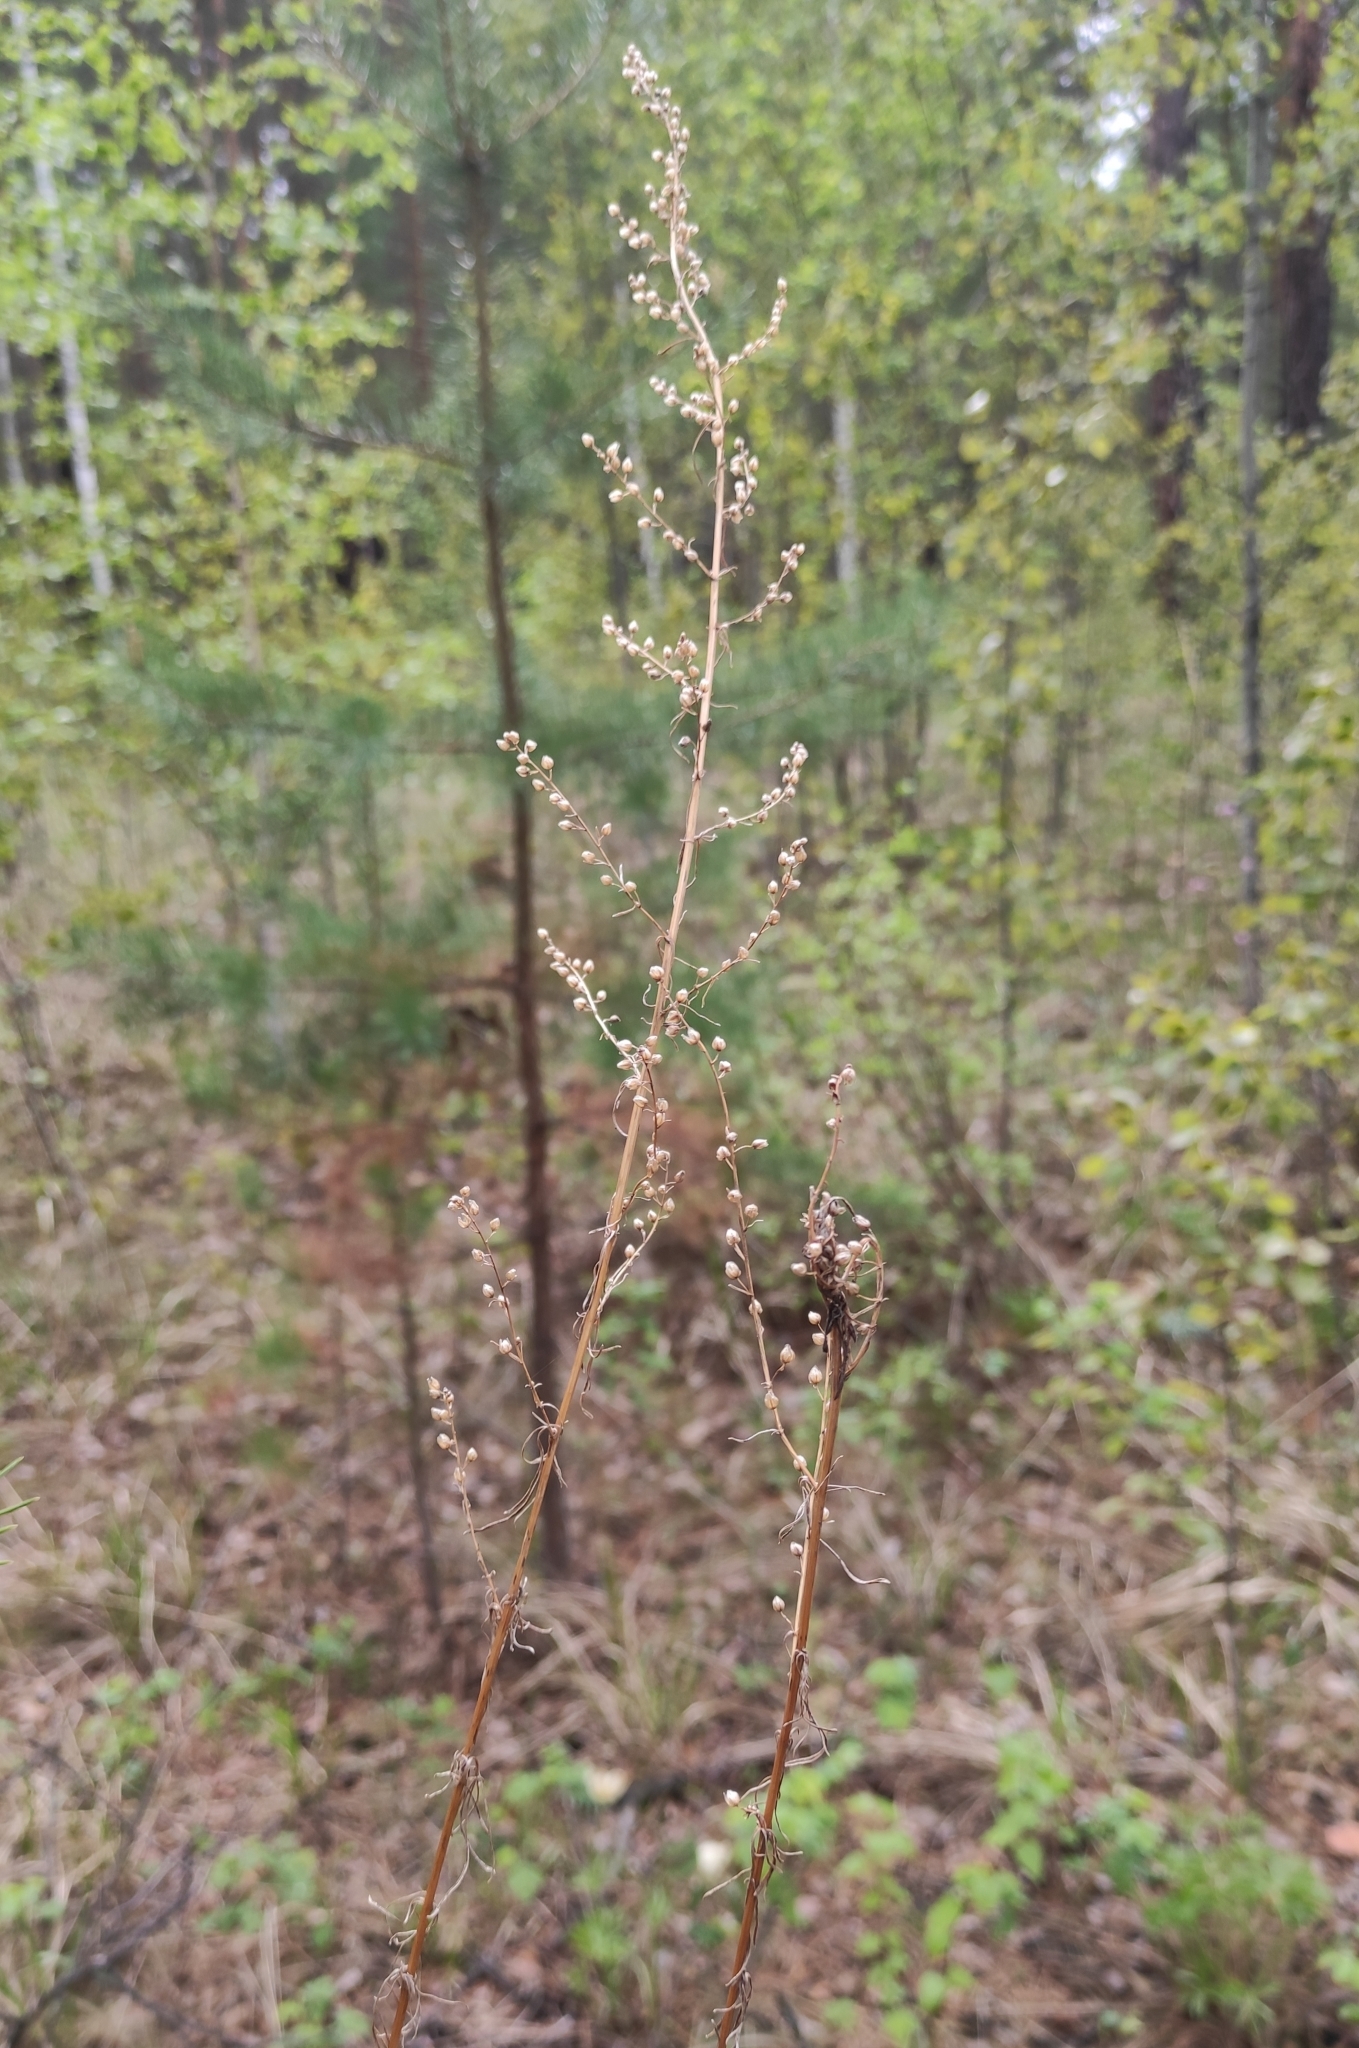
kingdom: Plantae
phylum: Tracheophyta
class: Magnoliopsida
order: Asterales
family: Asteraceae
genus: Artemisia
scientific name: Artemisia pubescens
